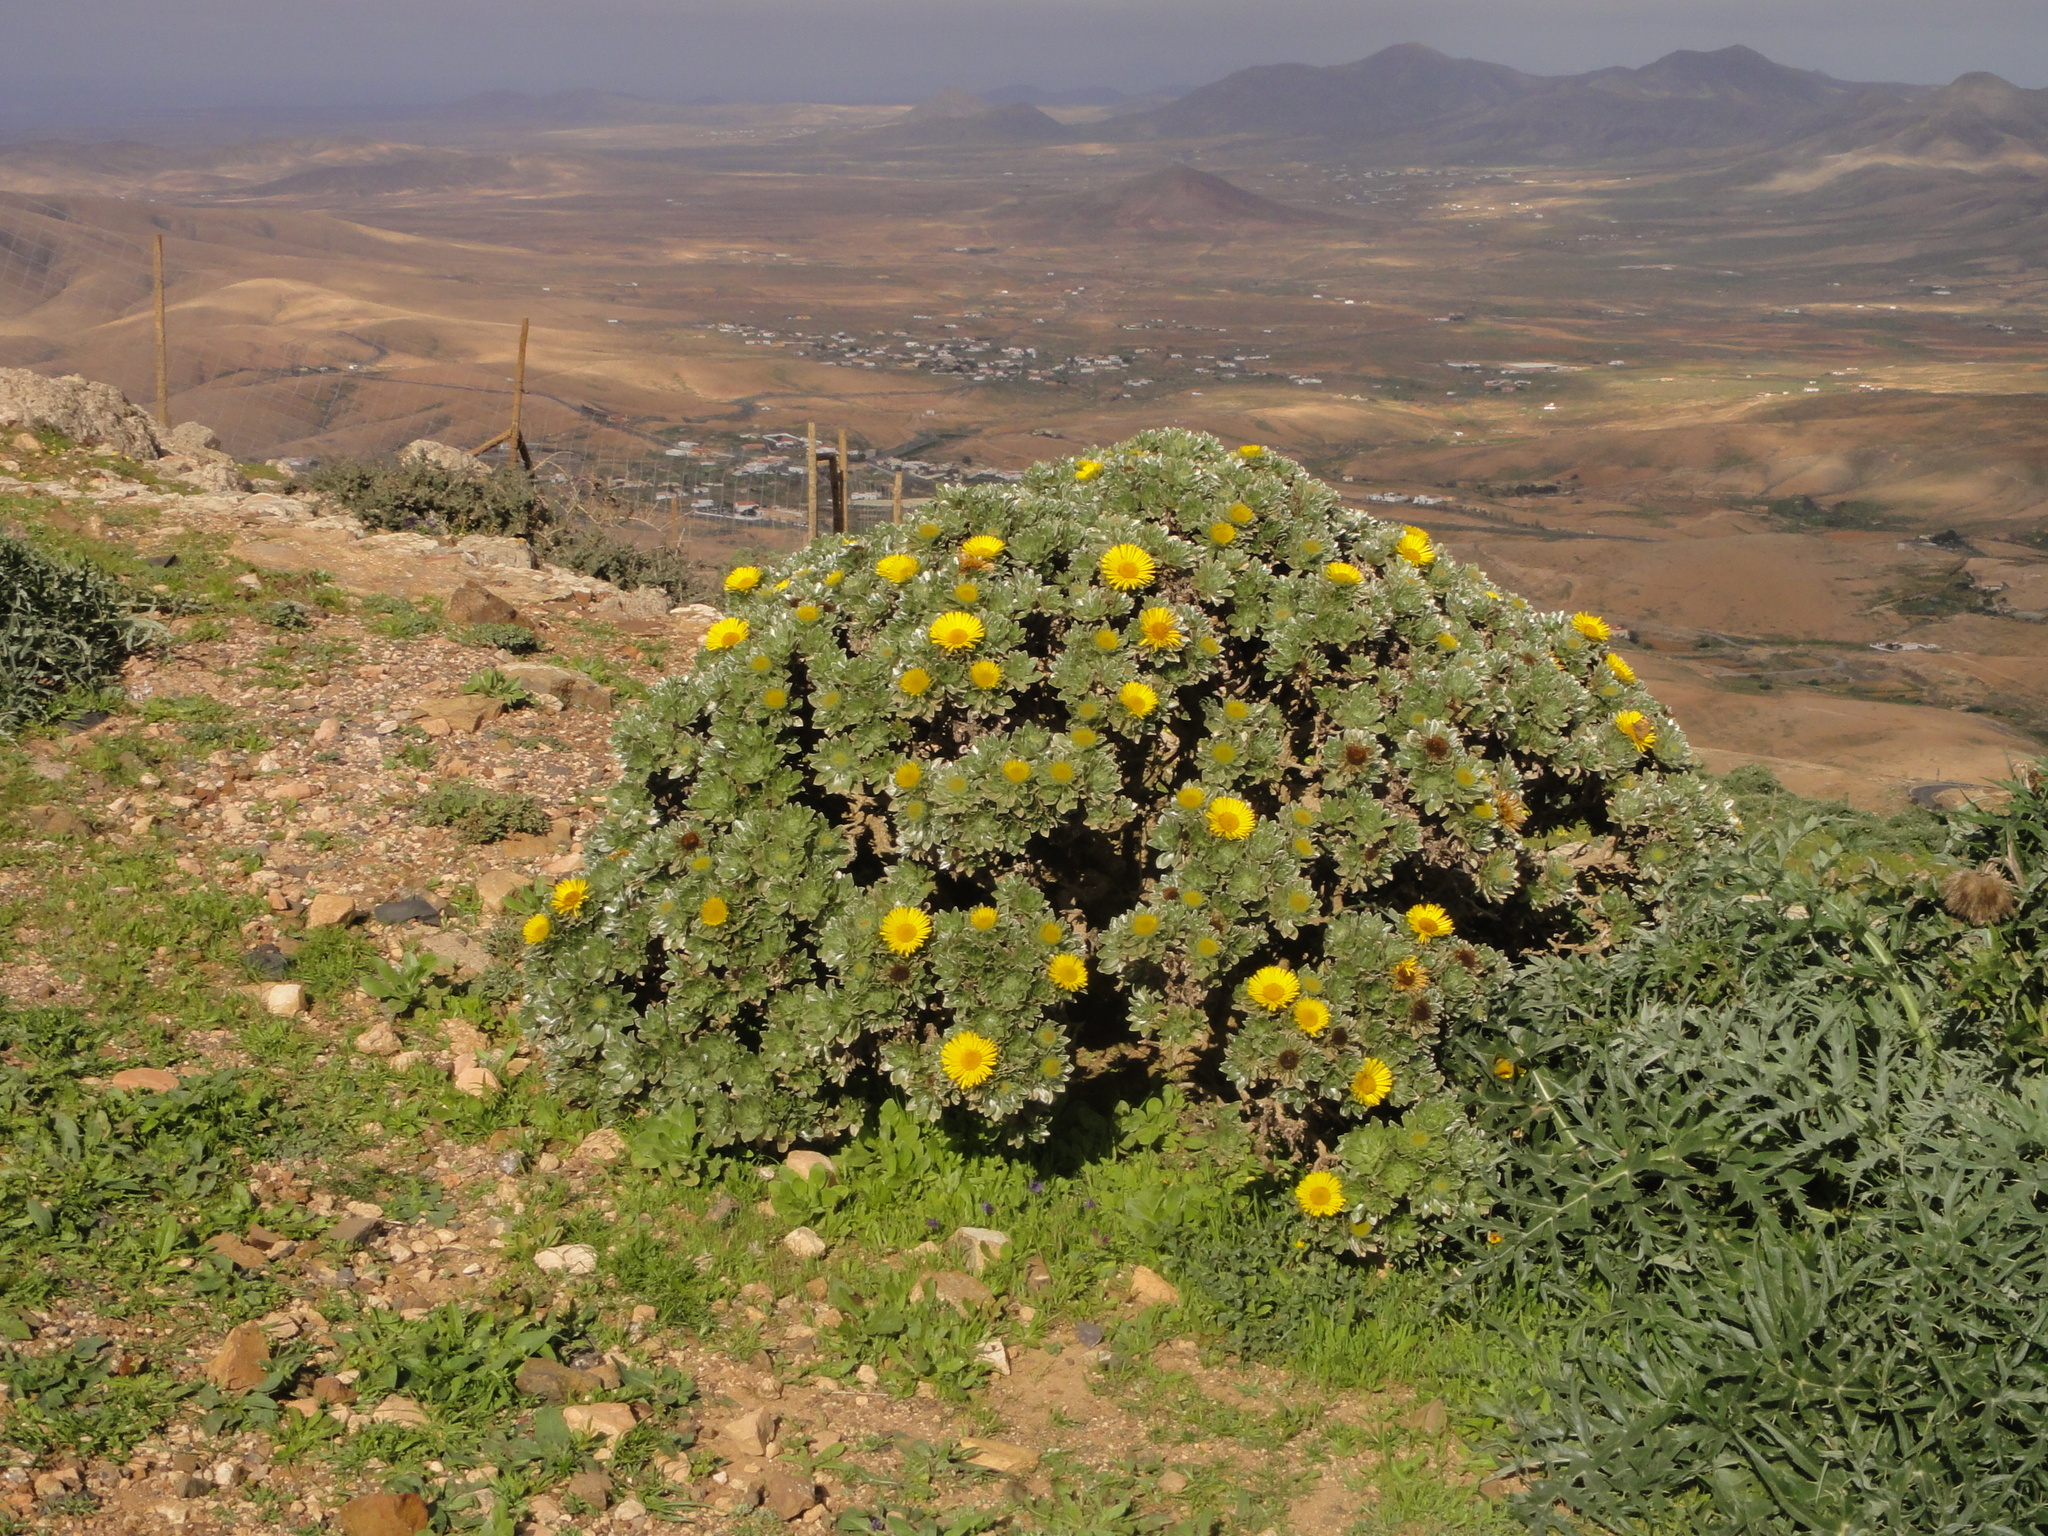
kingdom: Plantae
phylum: Tracheophyta
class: Magnoliopsida
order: Asterales
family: Asteraceae
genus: Asteriscus
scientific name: Asteriscus sericeus
